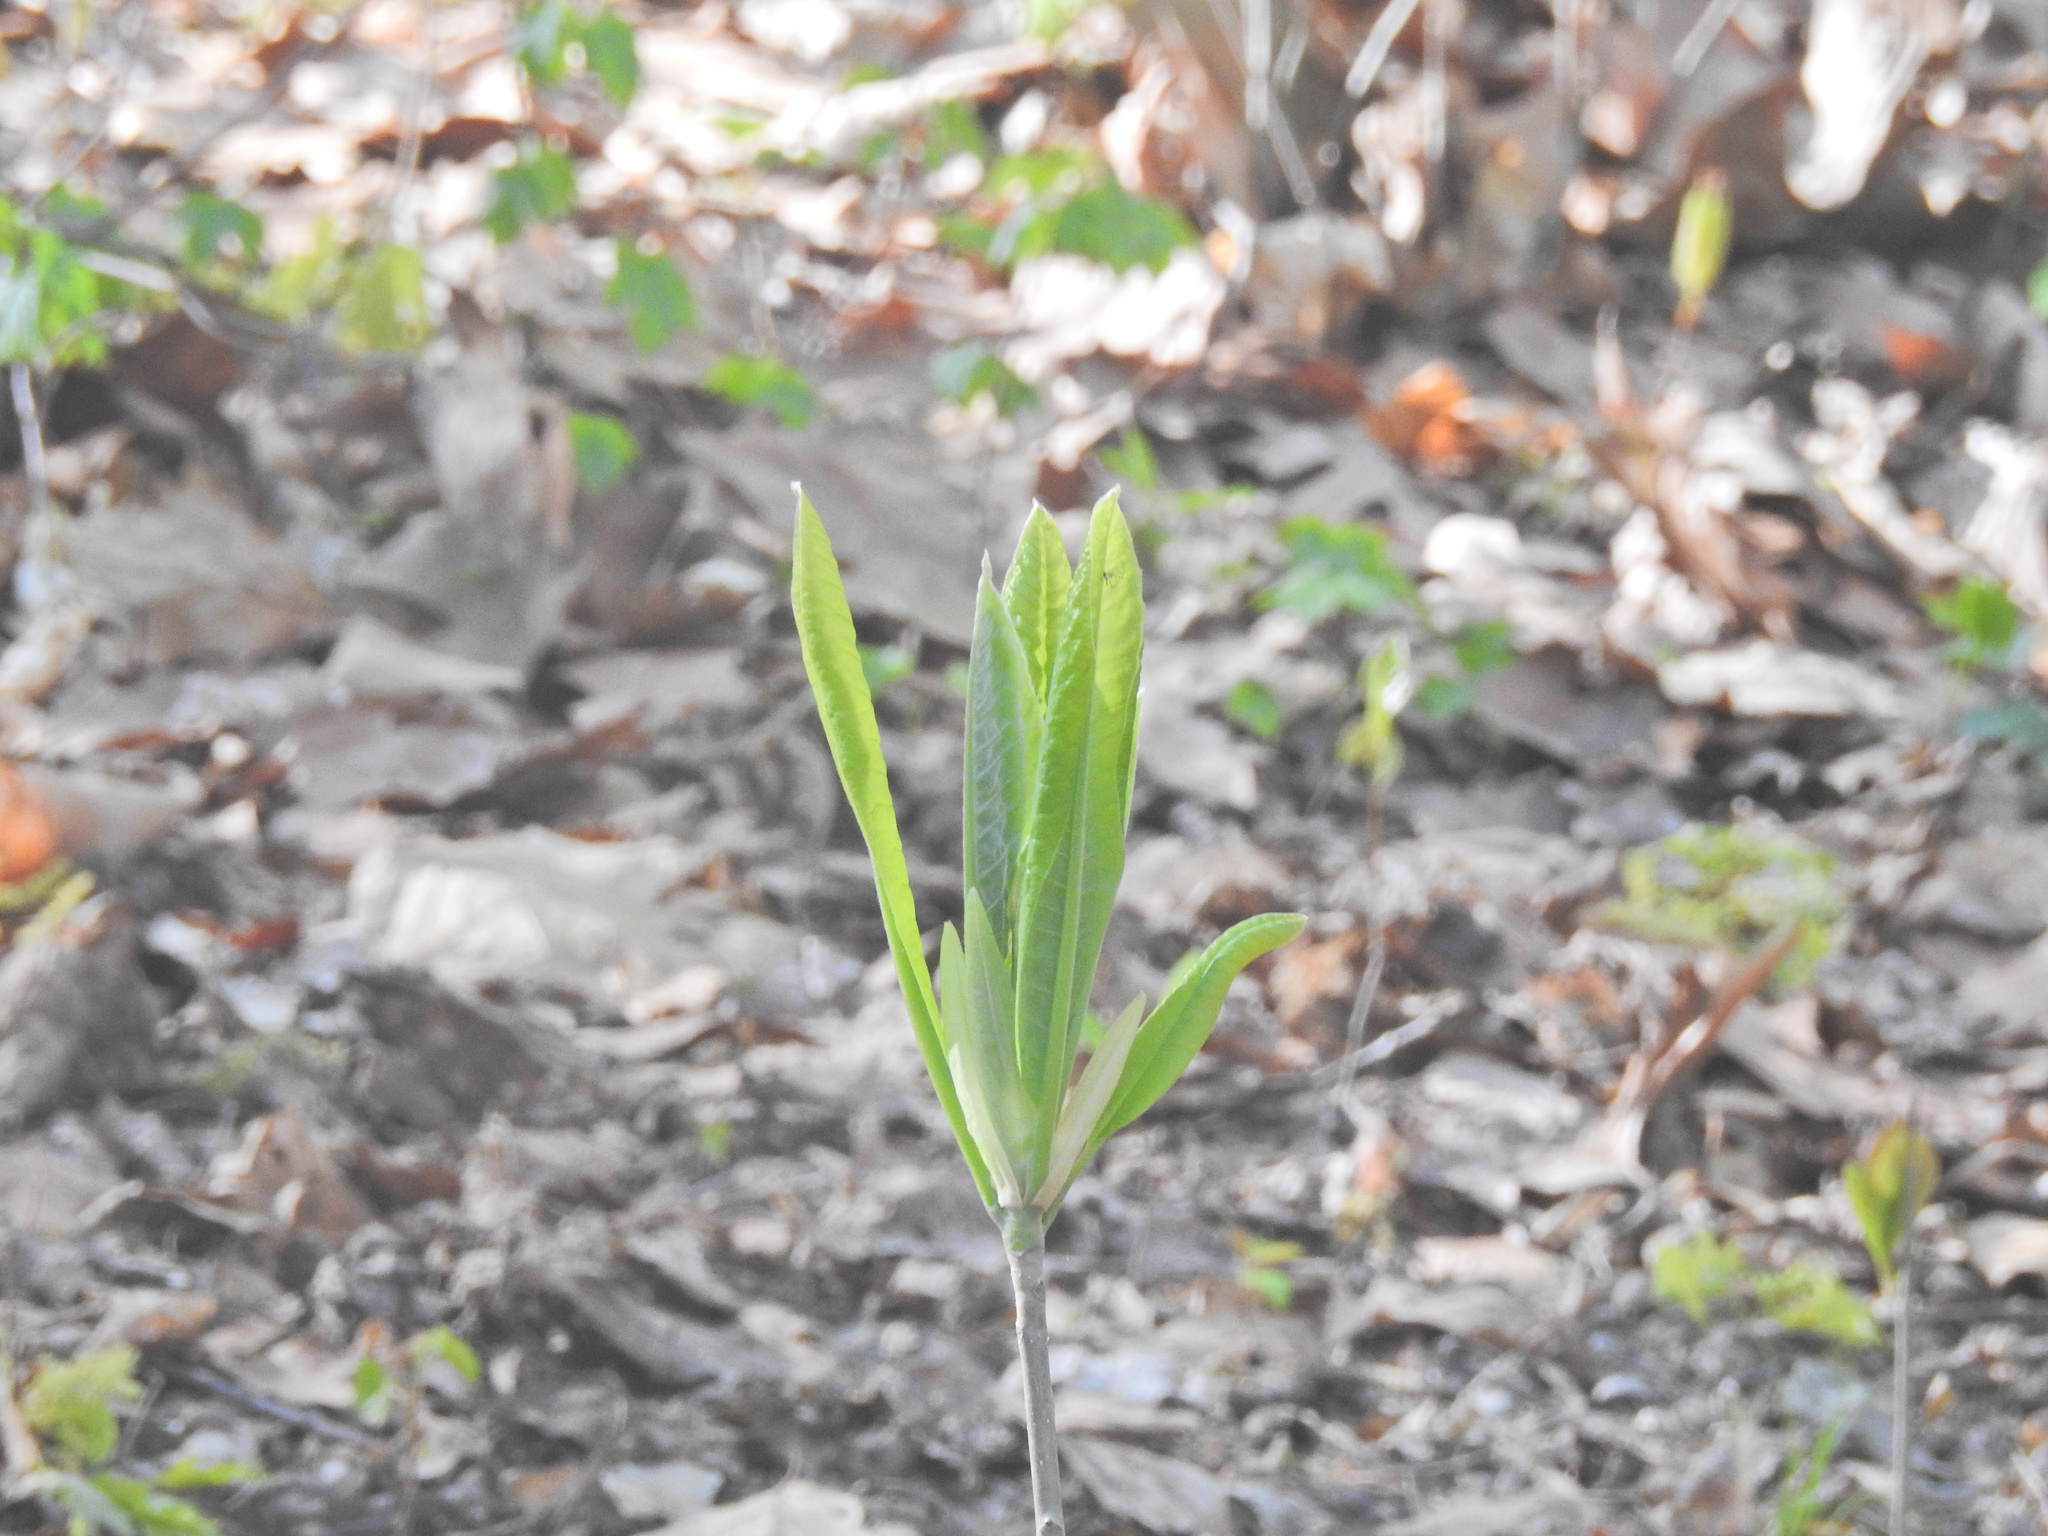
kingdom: Plantae
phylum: Tracheophyta
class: Magnoliopsida
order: Magnoliales
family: Magnoliaceae
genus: Magnolia
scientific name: Magnolia tripetala
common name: Umbrella magnolia
